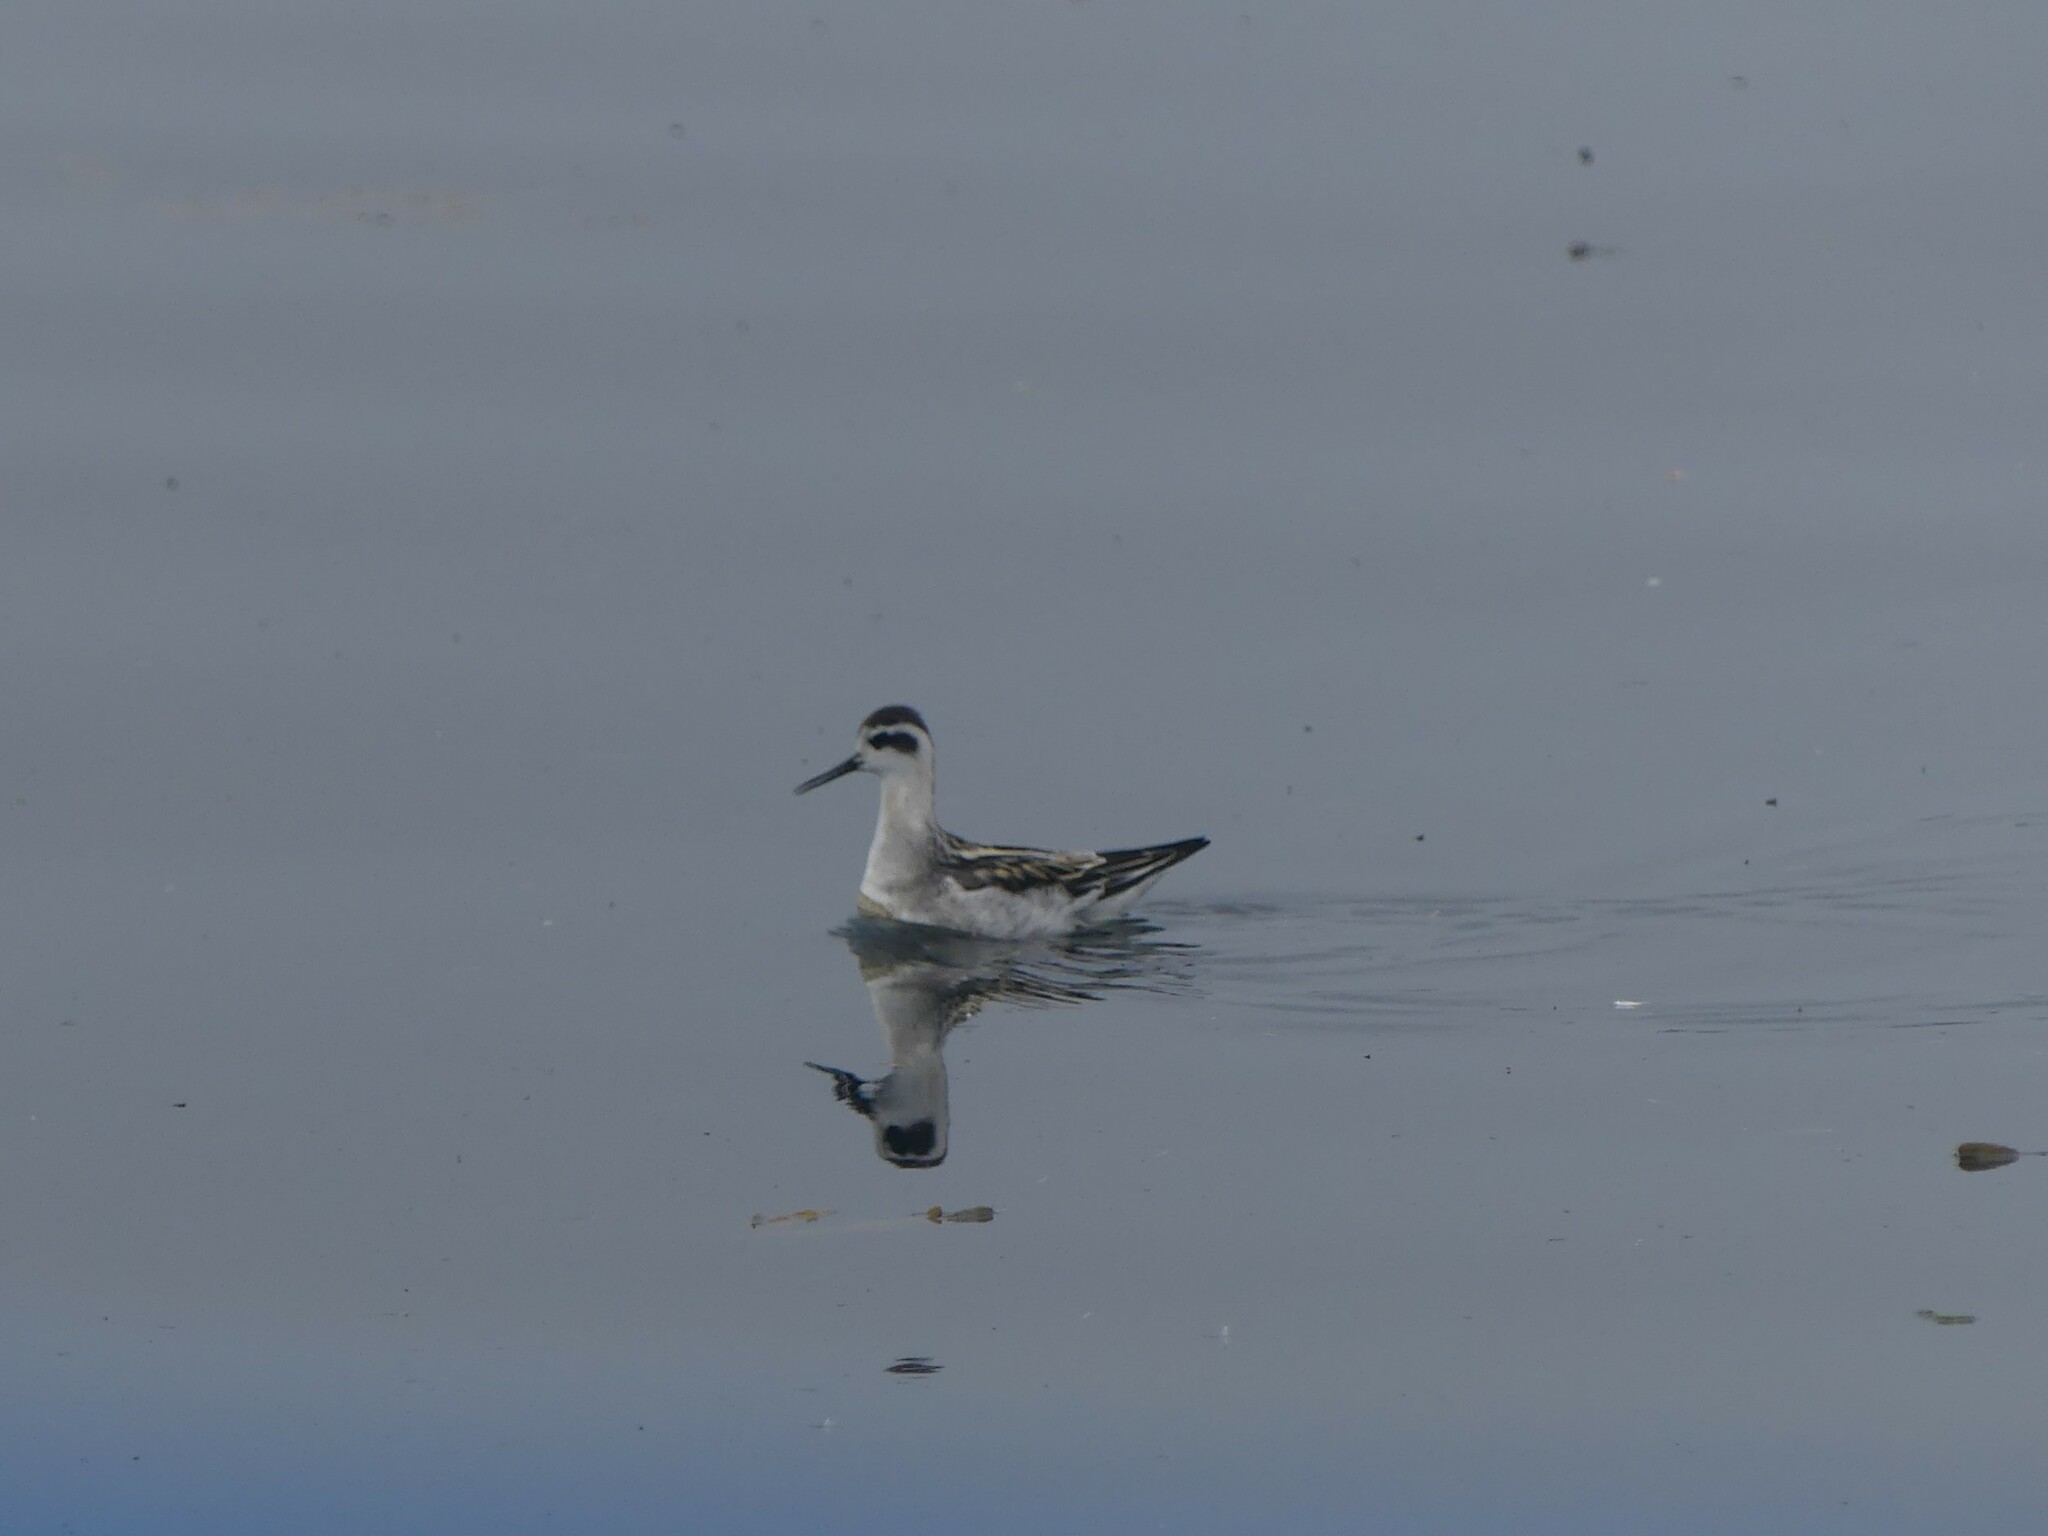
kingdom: Animalia
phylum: Chordata
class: Aves
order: Charadriiformes
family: Scolopacidae
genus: Phalaropus
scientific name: Phalaropus lobatus
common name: Red-necked phalarope
